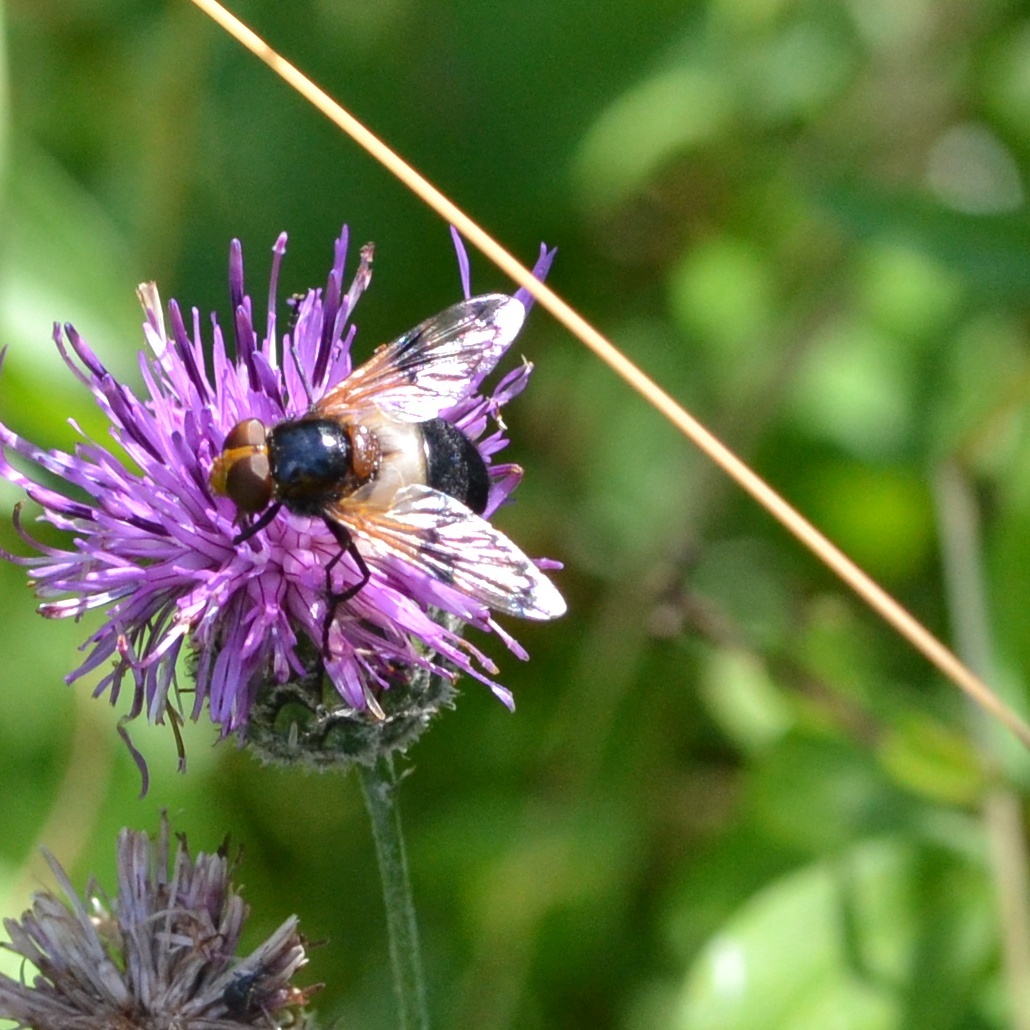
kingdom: Animalia
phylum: Arthropoda
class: Insecta
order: Diptera
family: Syrphidae
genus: Volucella
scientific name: Volucella pellucens
